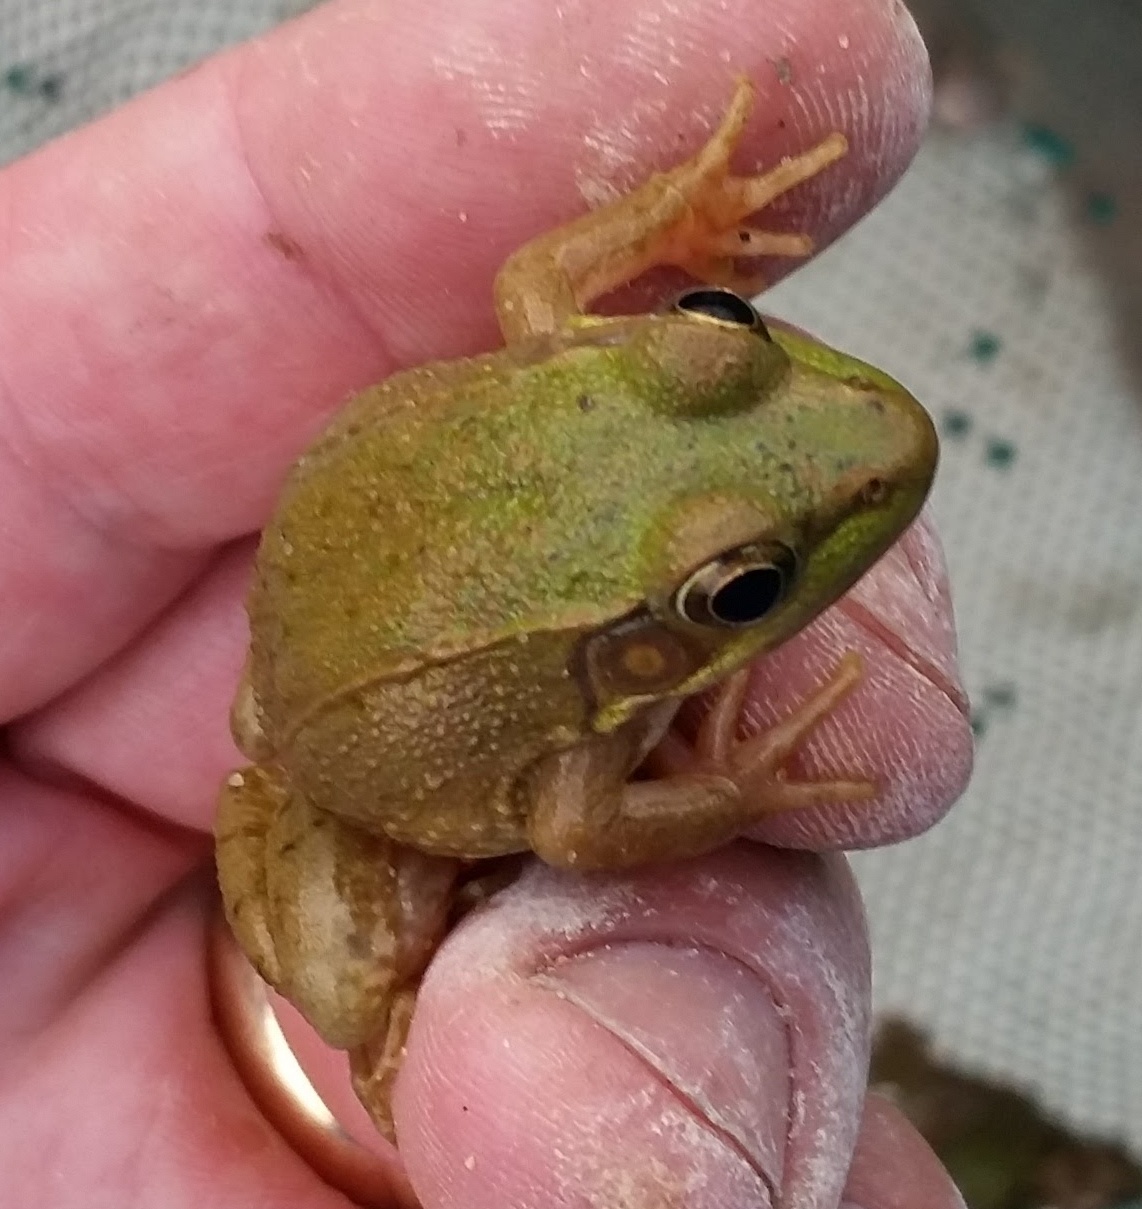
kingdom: Animalia
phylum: Chordata
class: Amphibia
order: Anura
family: Ranidae
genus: Lithobates
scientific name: Lithobates clamitans
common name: Green frog
